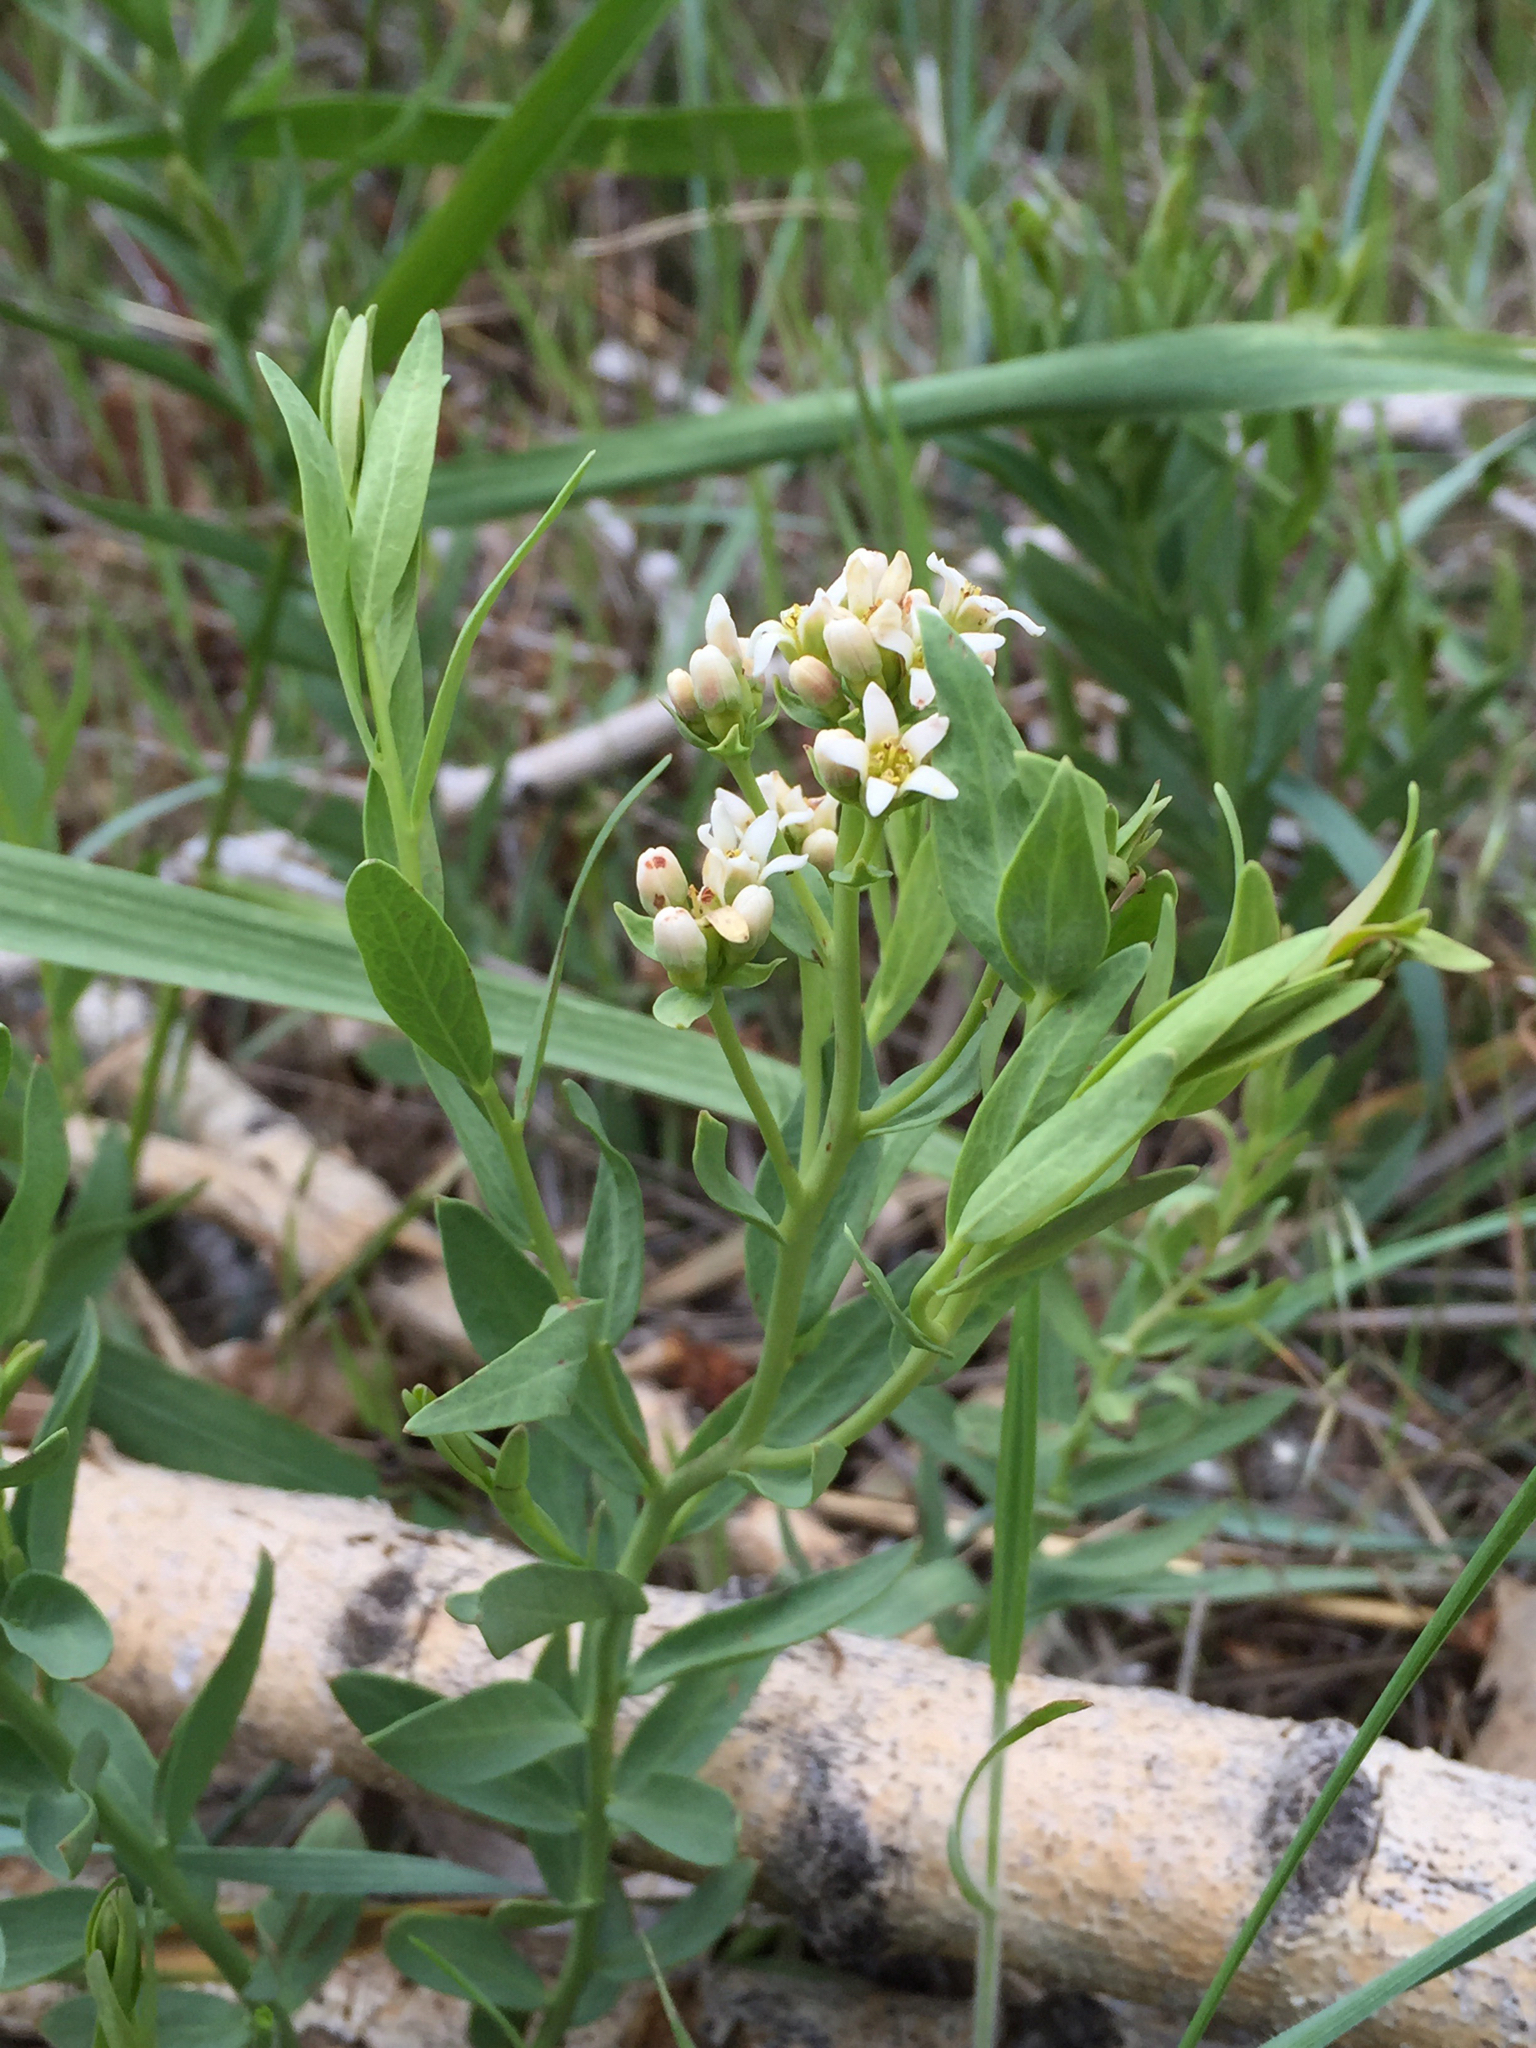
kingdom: Plantae
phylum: Tracheophyta
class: Magnoliopsida
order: Santalales
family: Comandraceae
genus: Comandra
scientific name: Comandra umbellata
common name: Bastard toadflax
